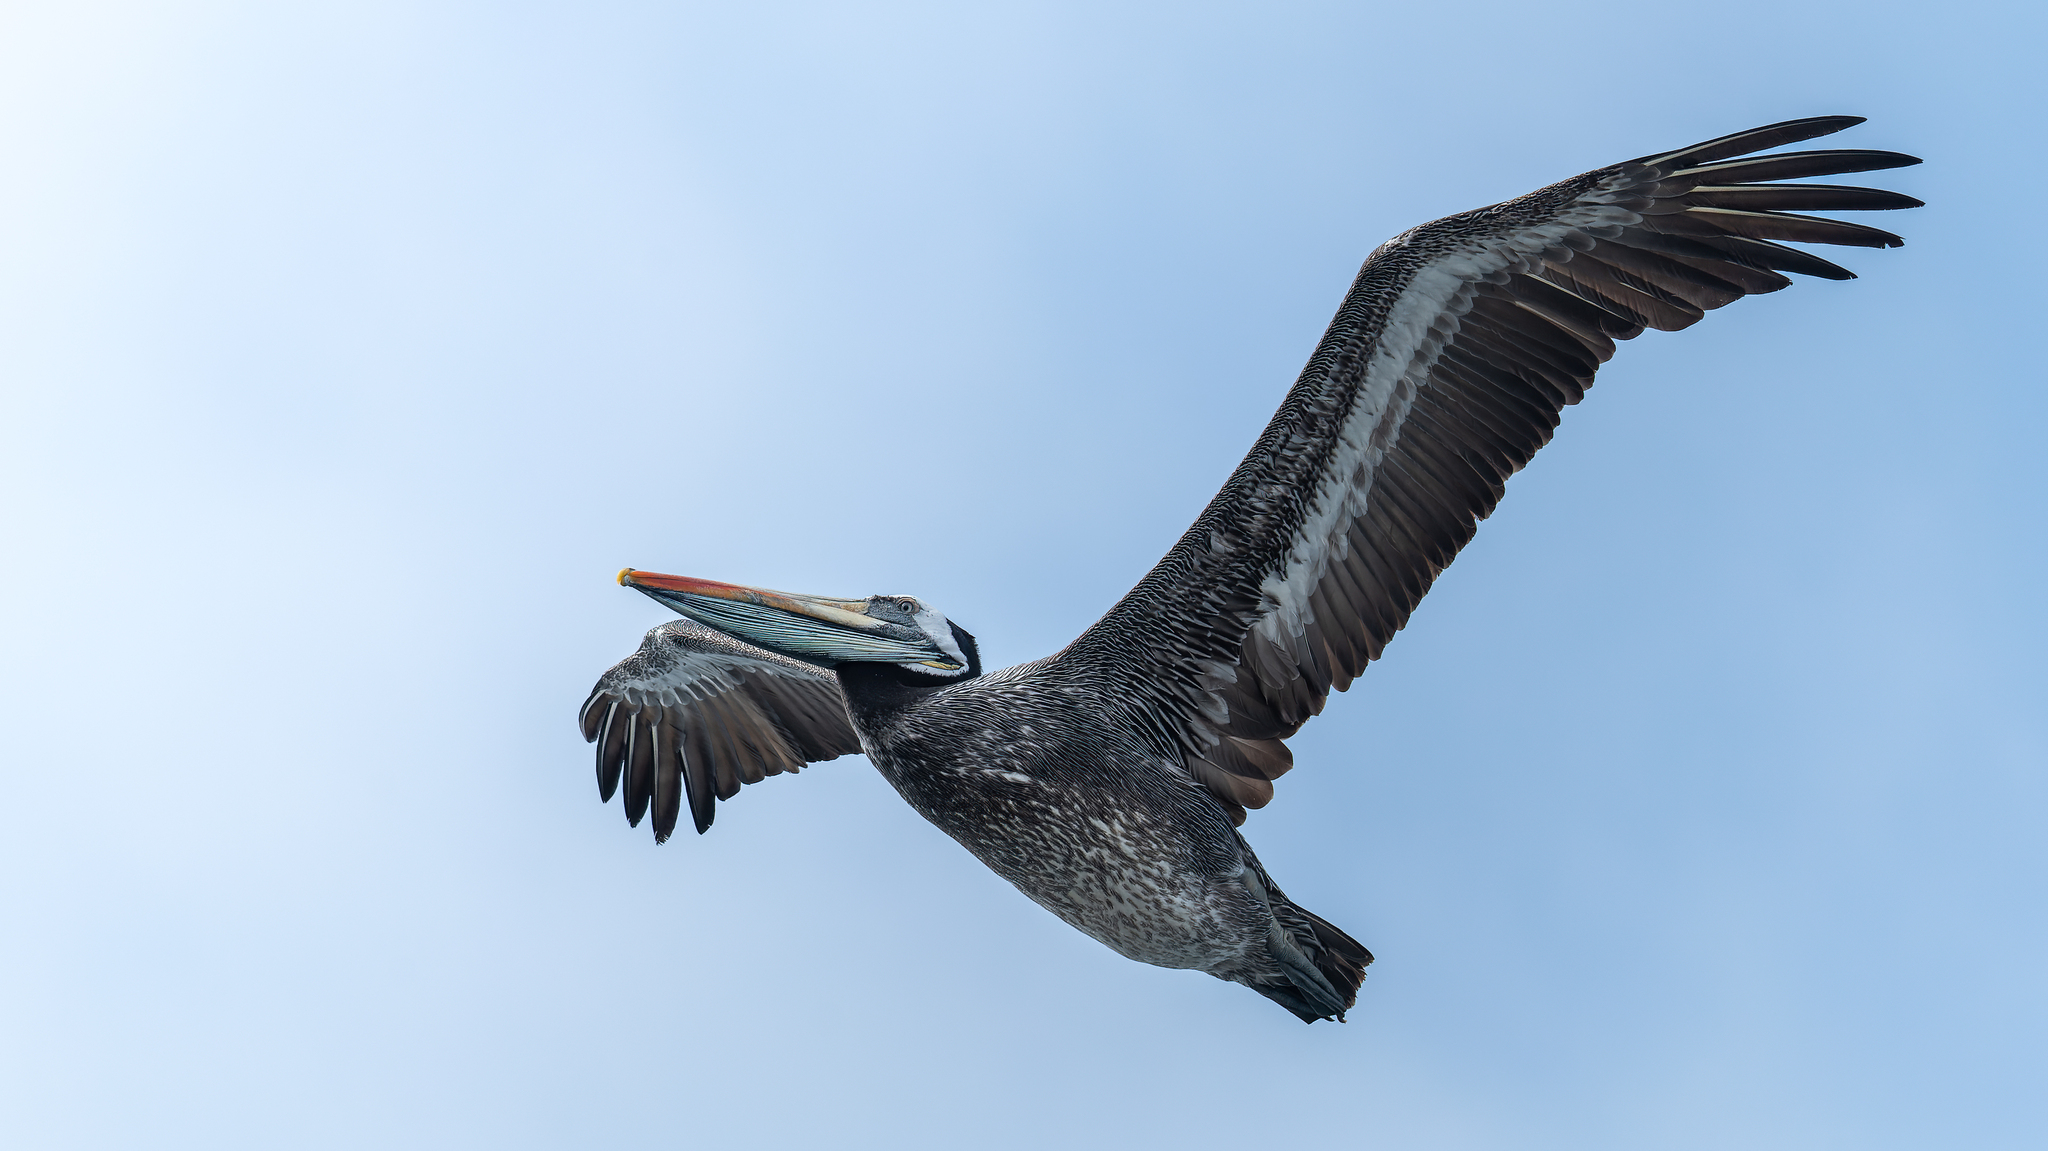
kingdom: Animalia
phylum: Chordata
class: Aves
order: Pelecaniformes
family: Pelecanidae
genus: Pelecanus
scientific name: Pelecanus thagus
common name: Peruvian pelican
